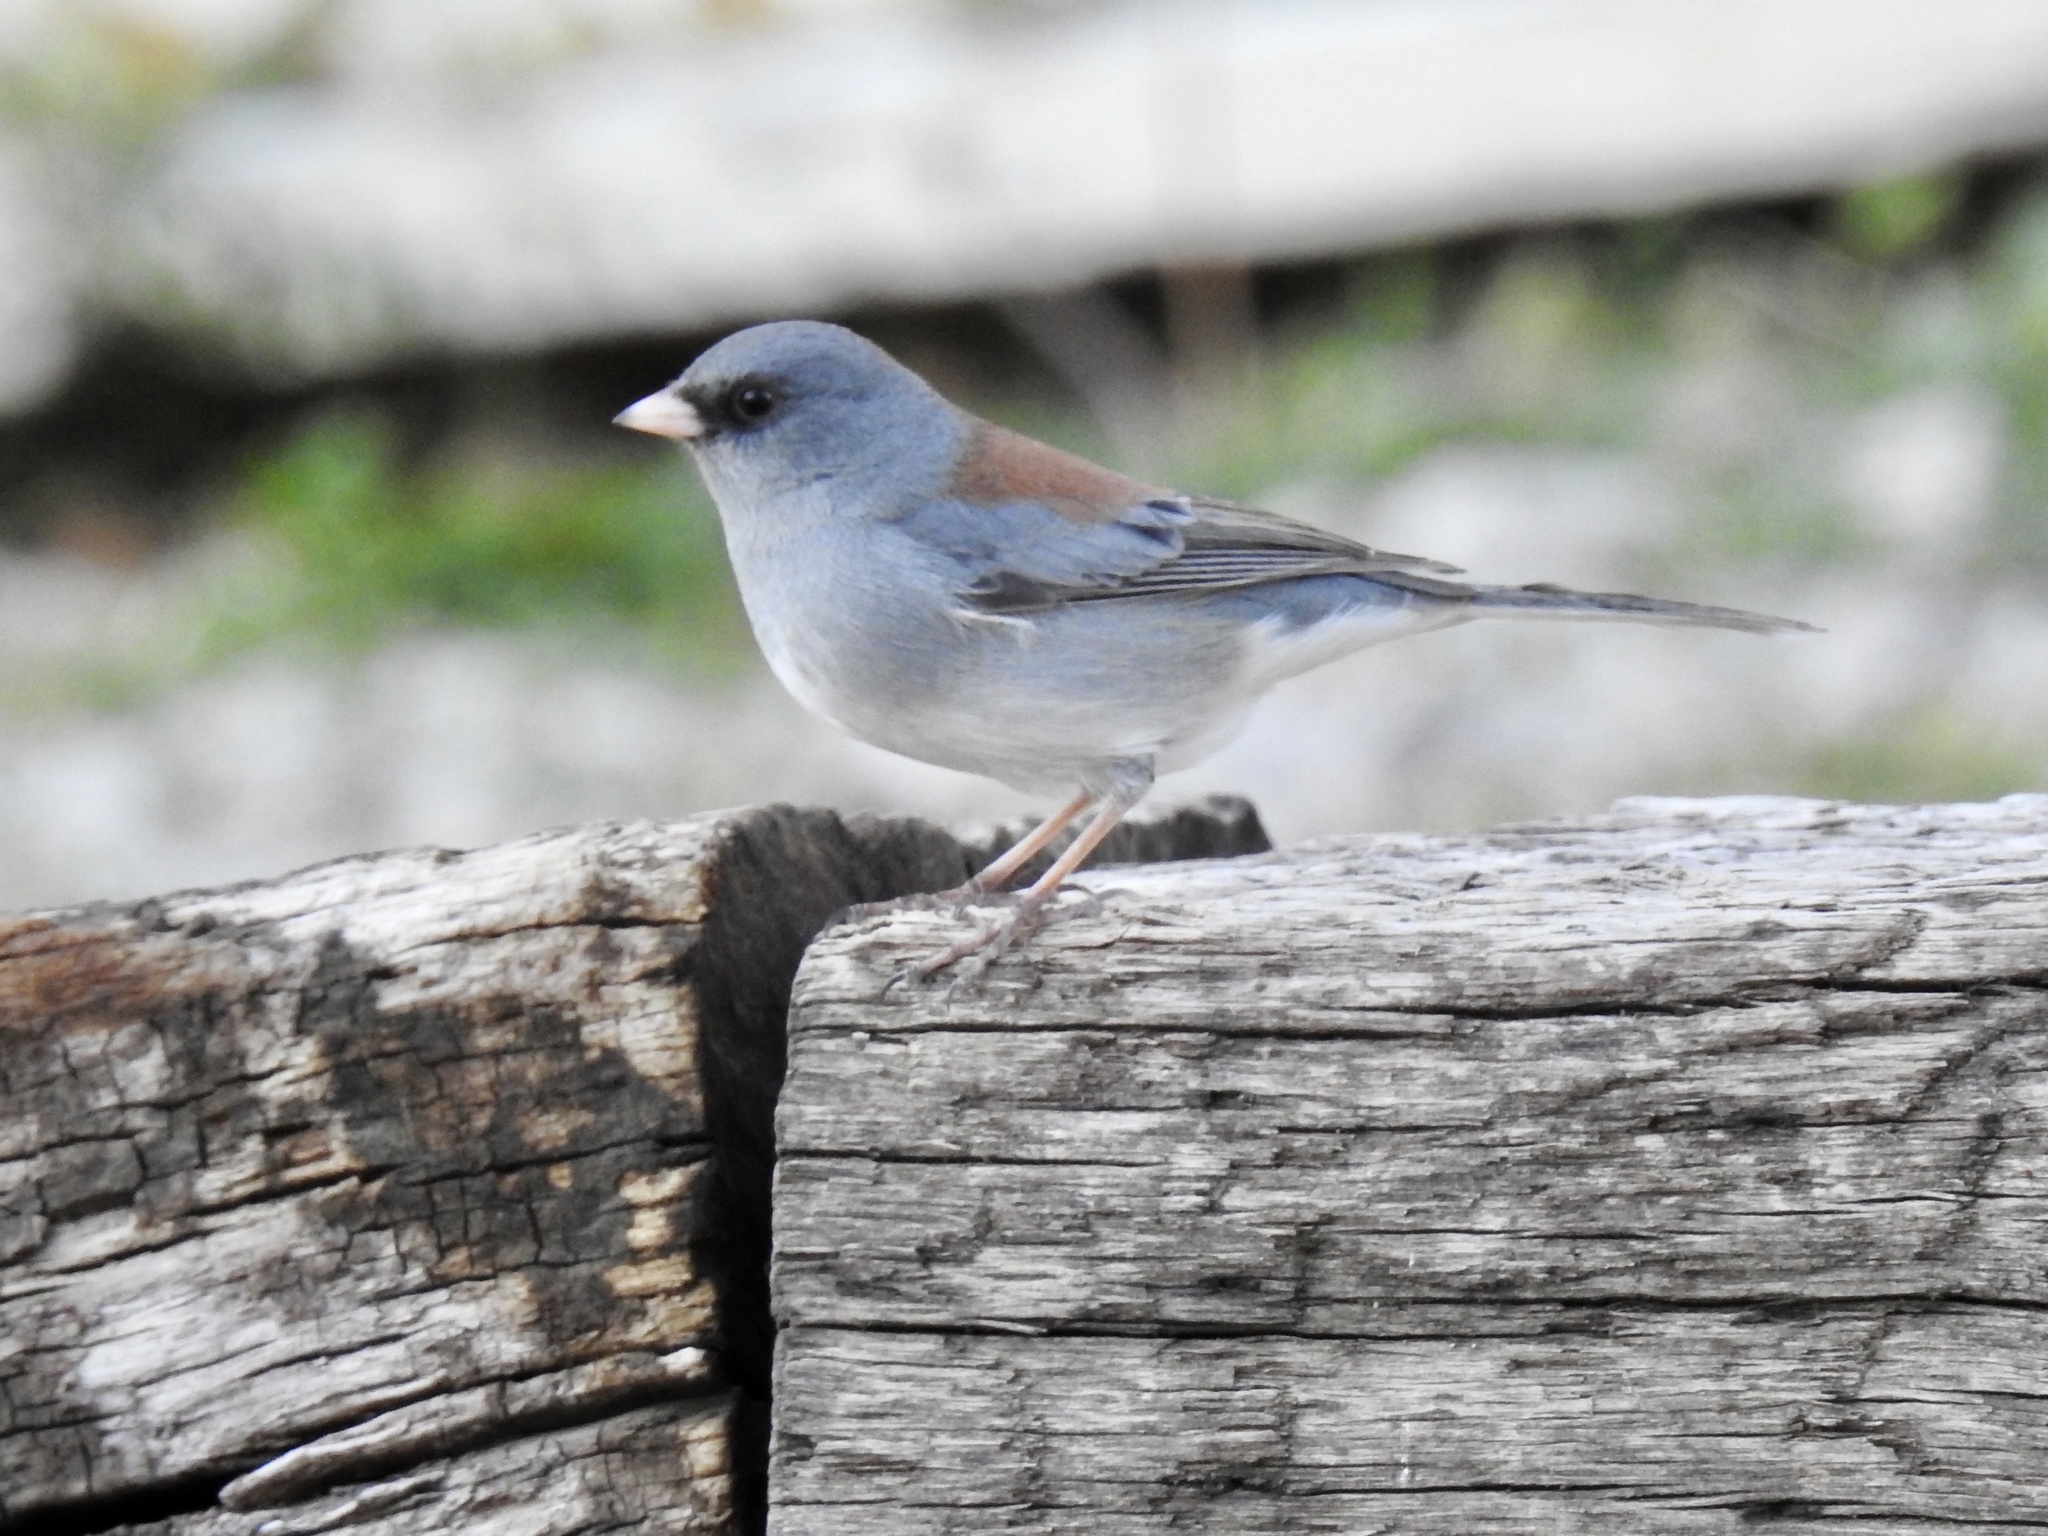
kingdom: Animalia
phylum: Chordata
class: Aves
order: Passeriformes
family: Passerellidae
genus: Junco
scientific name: Junco hyemalis
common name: Dark-eyed junco
